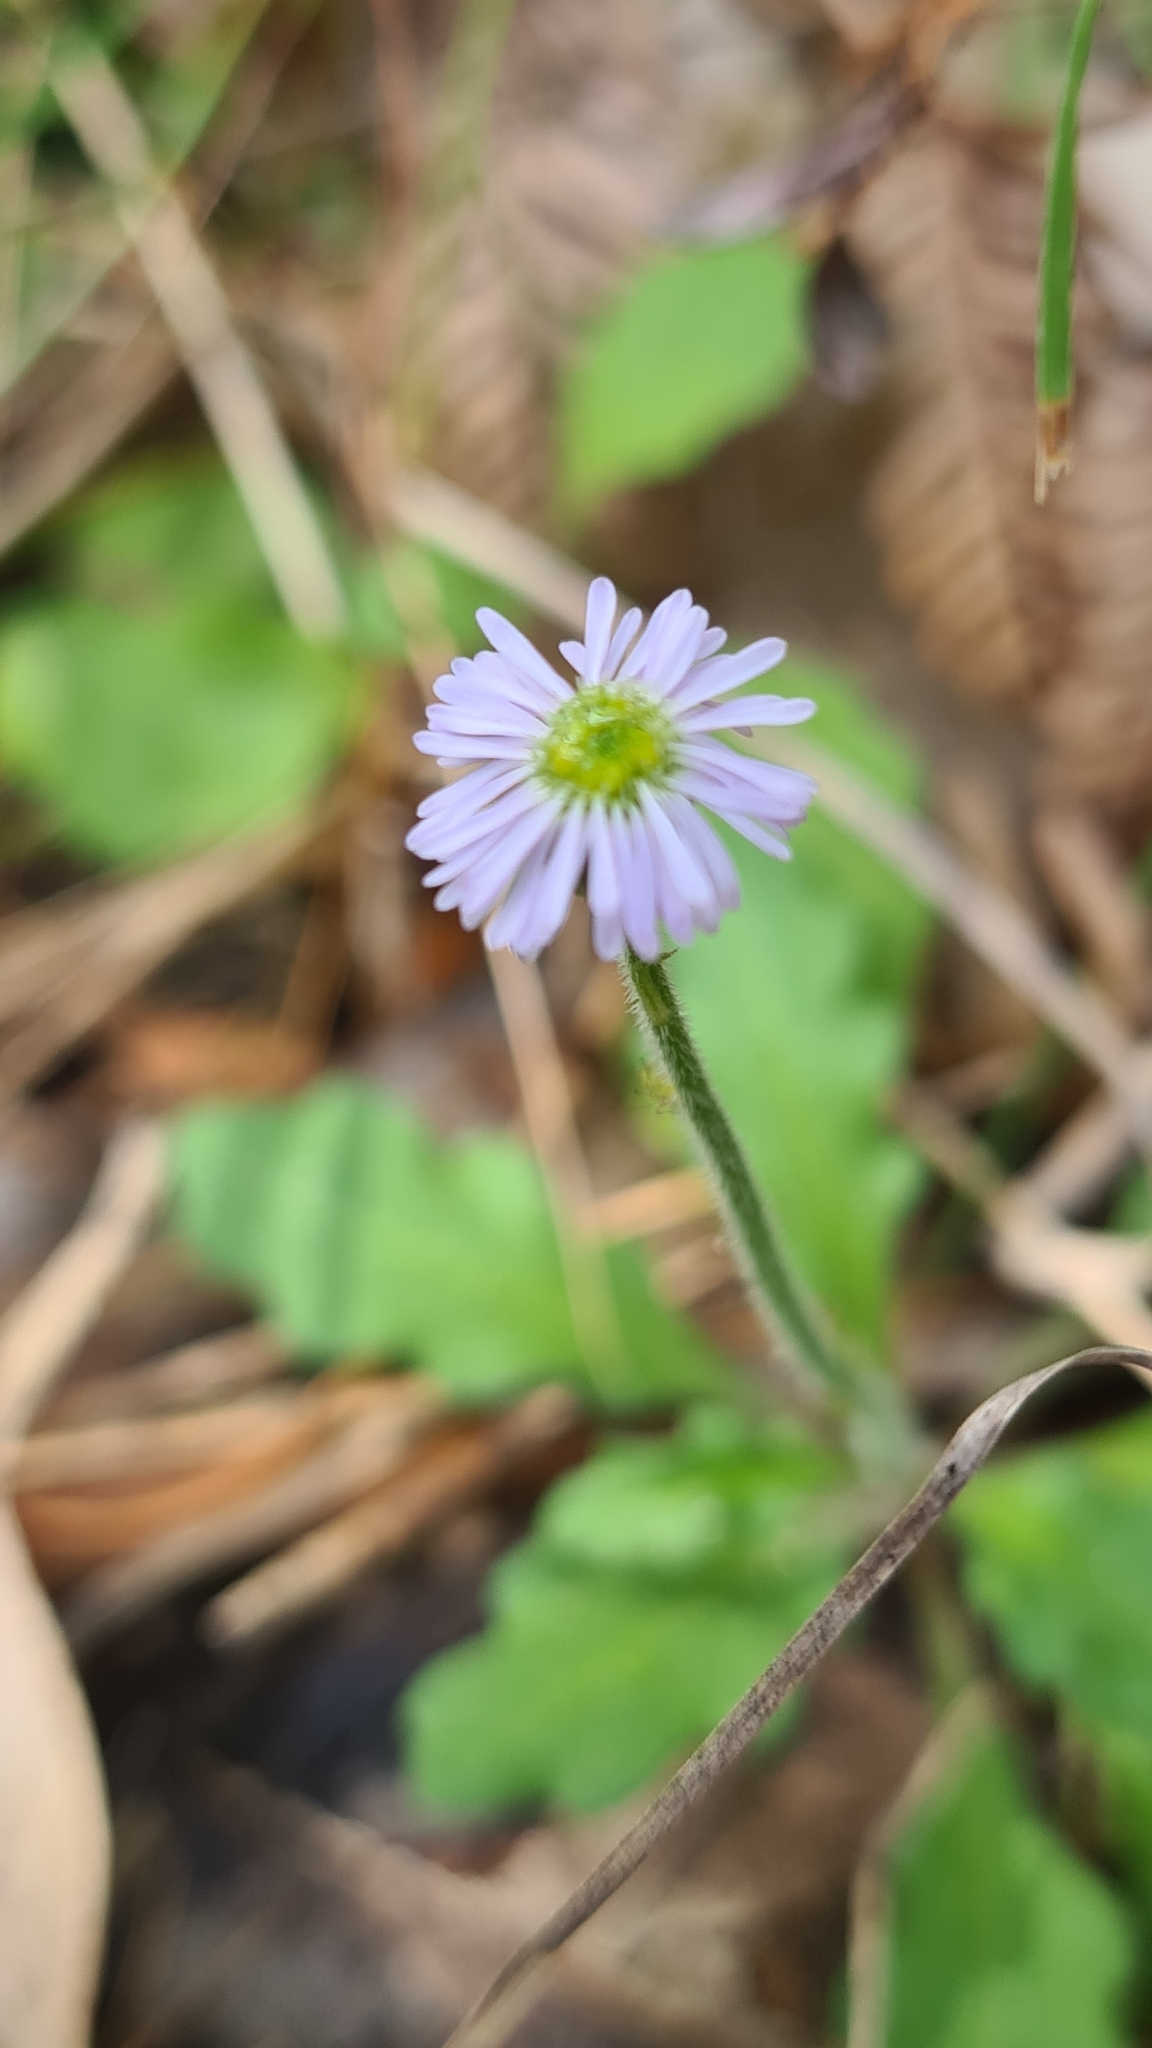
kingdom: Plantae
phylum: Tracheophyta
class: Magnoliopsida
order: Asterales
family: Asteraceae
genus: Lagenophora
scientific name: Lagenophora stipitata
